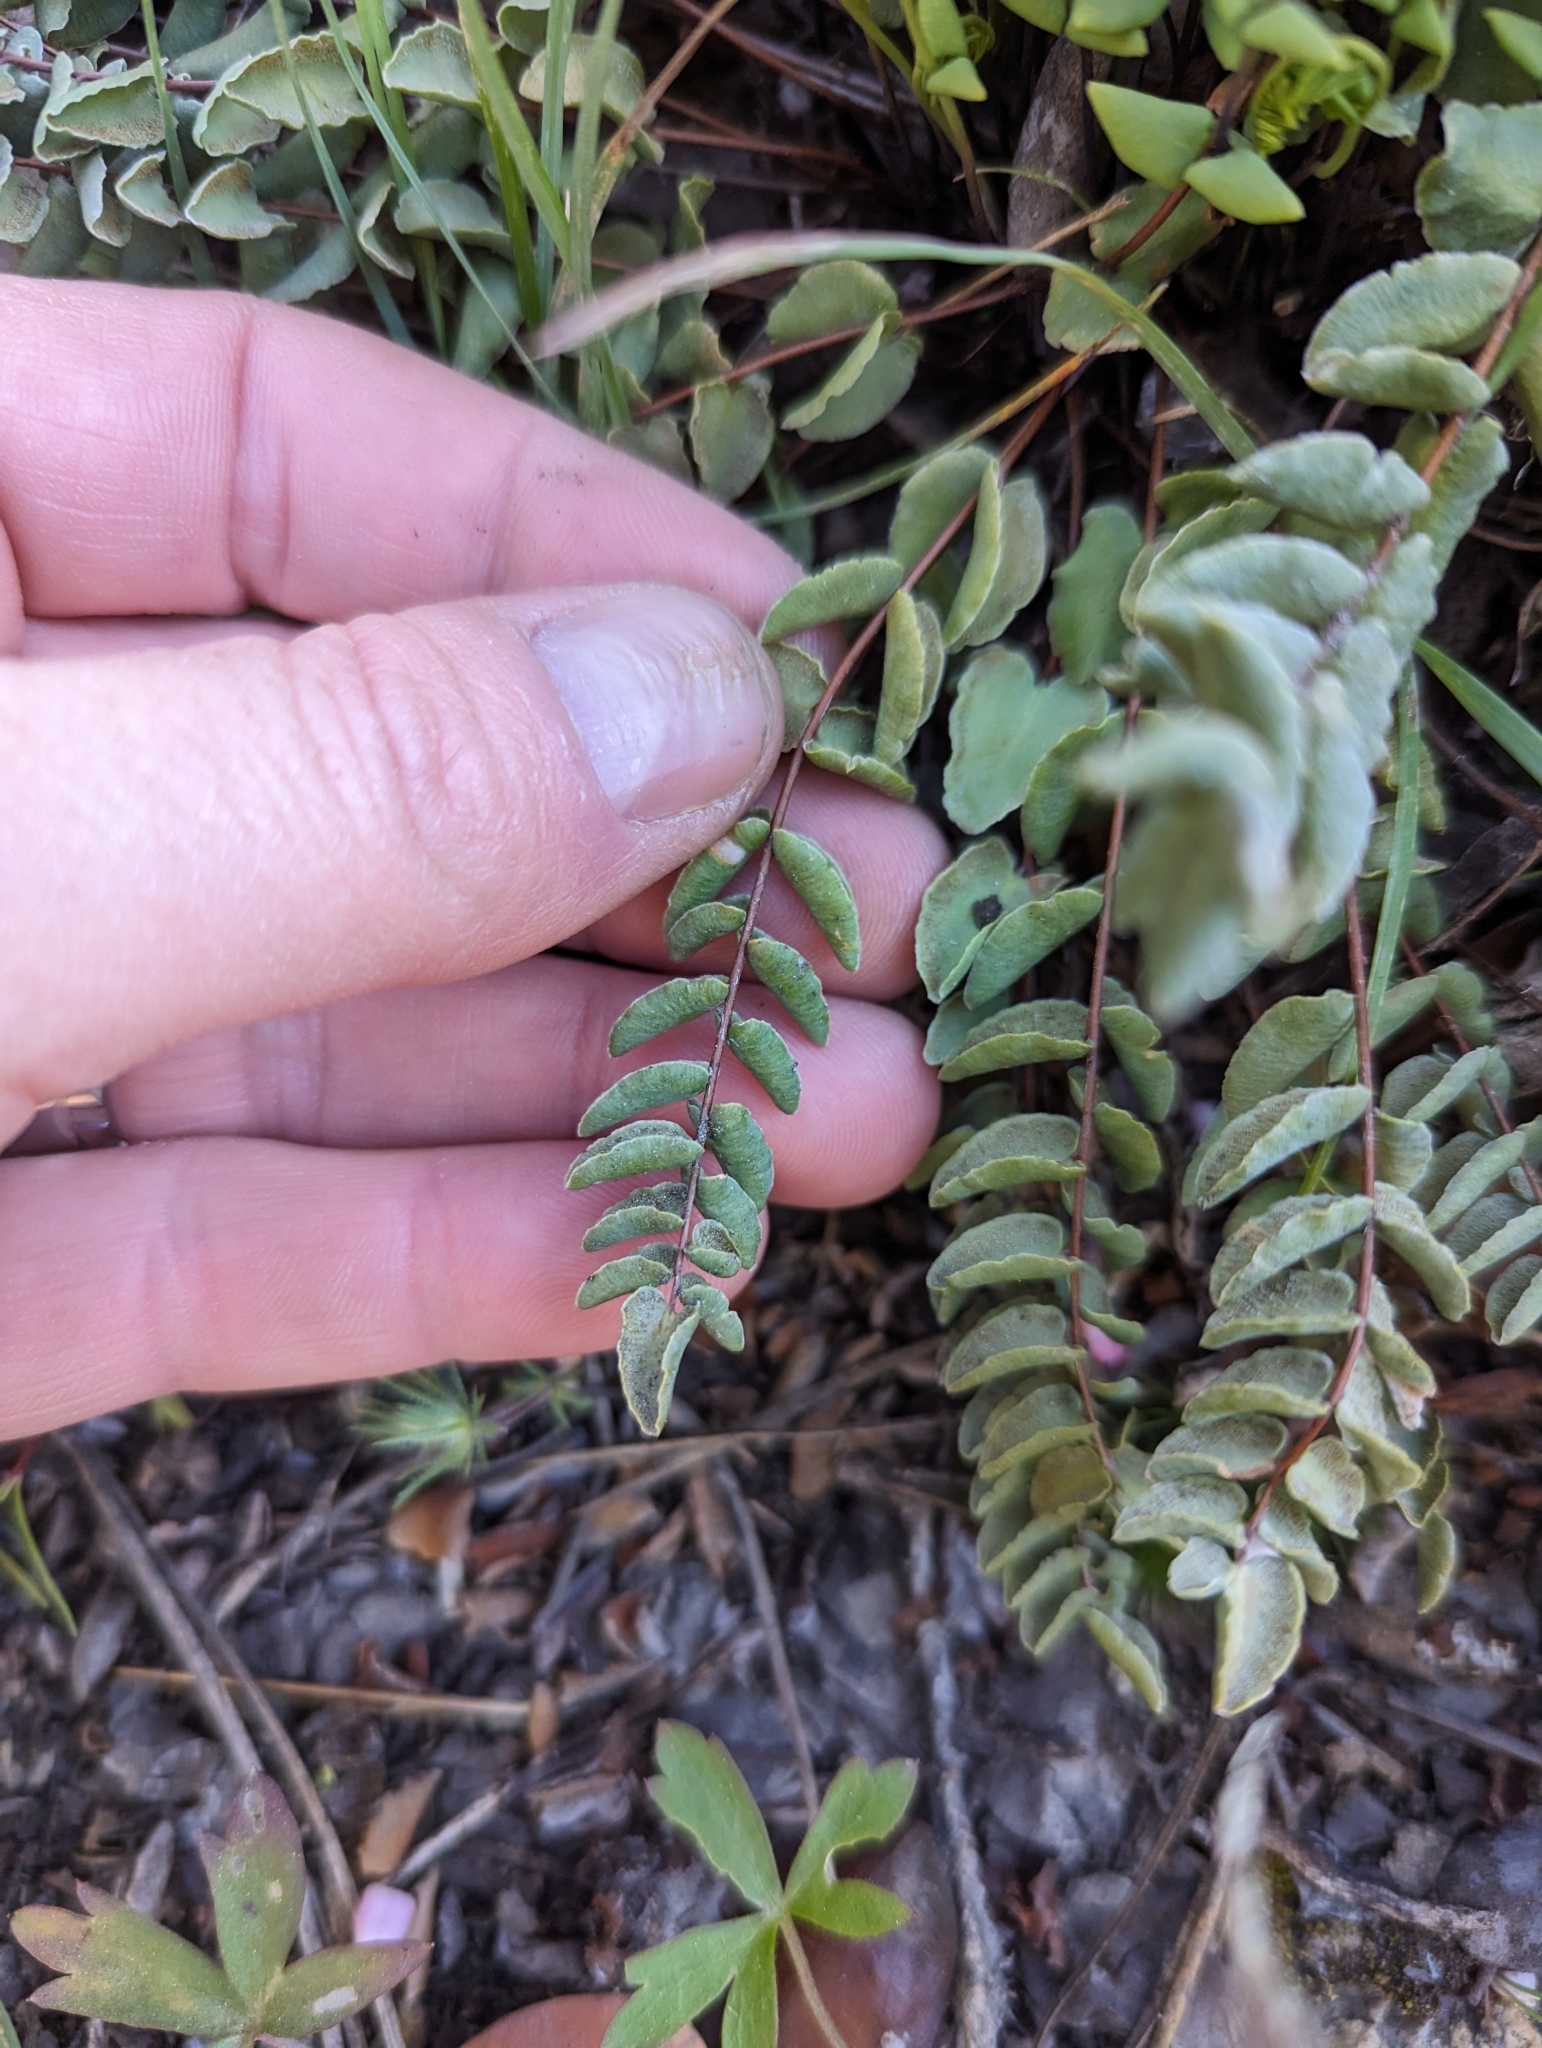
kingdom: Plantae
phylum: Tracheophyta
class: Polypodiopsida
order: Polypodiales
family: Pteridaceae
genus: Pellaea
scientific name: Pellaea bridgesii
